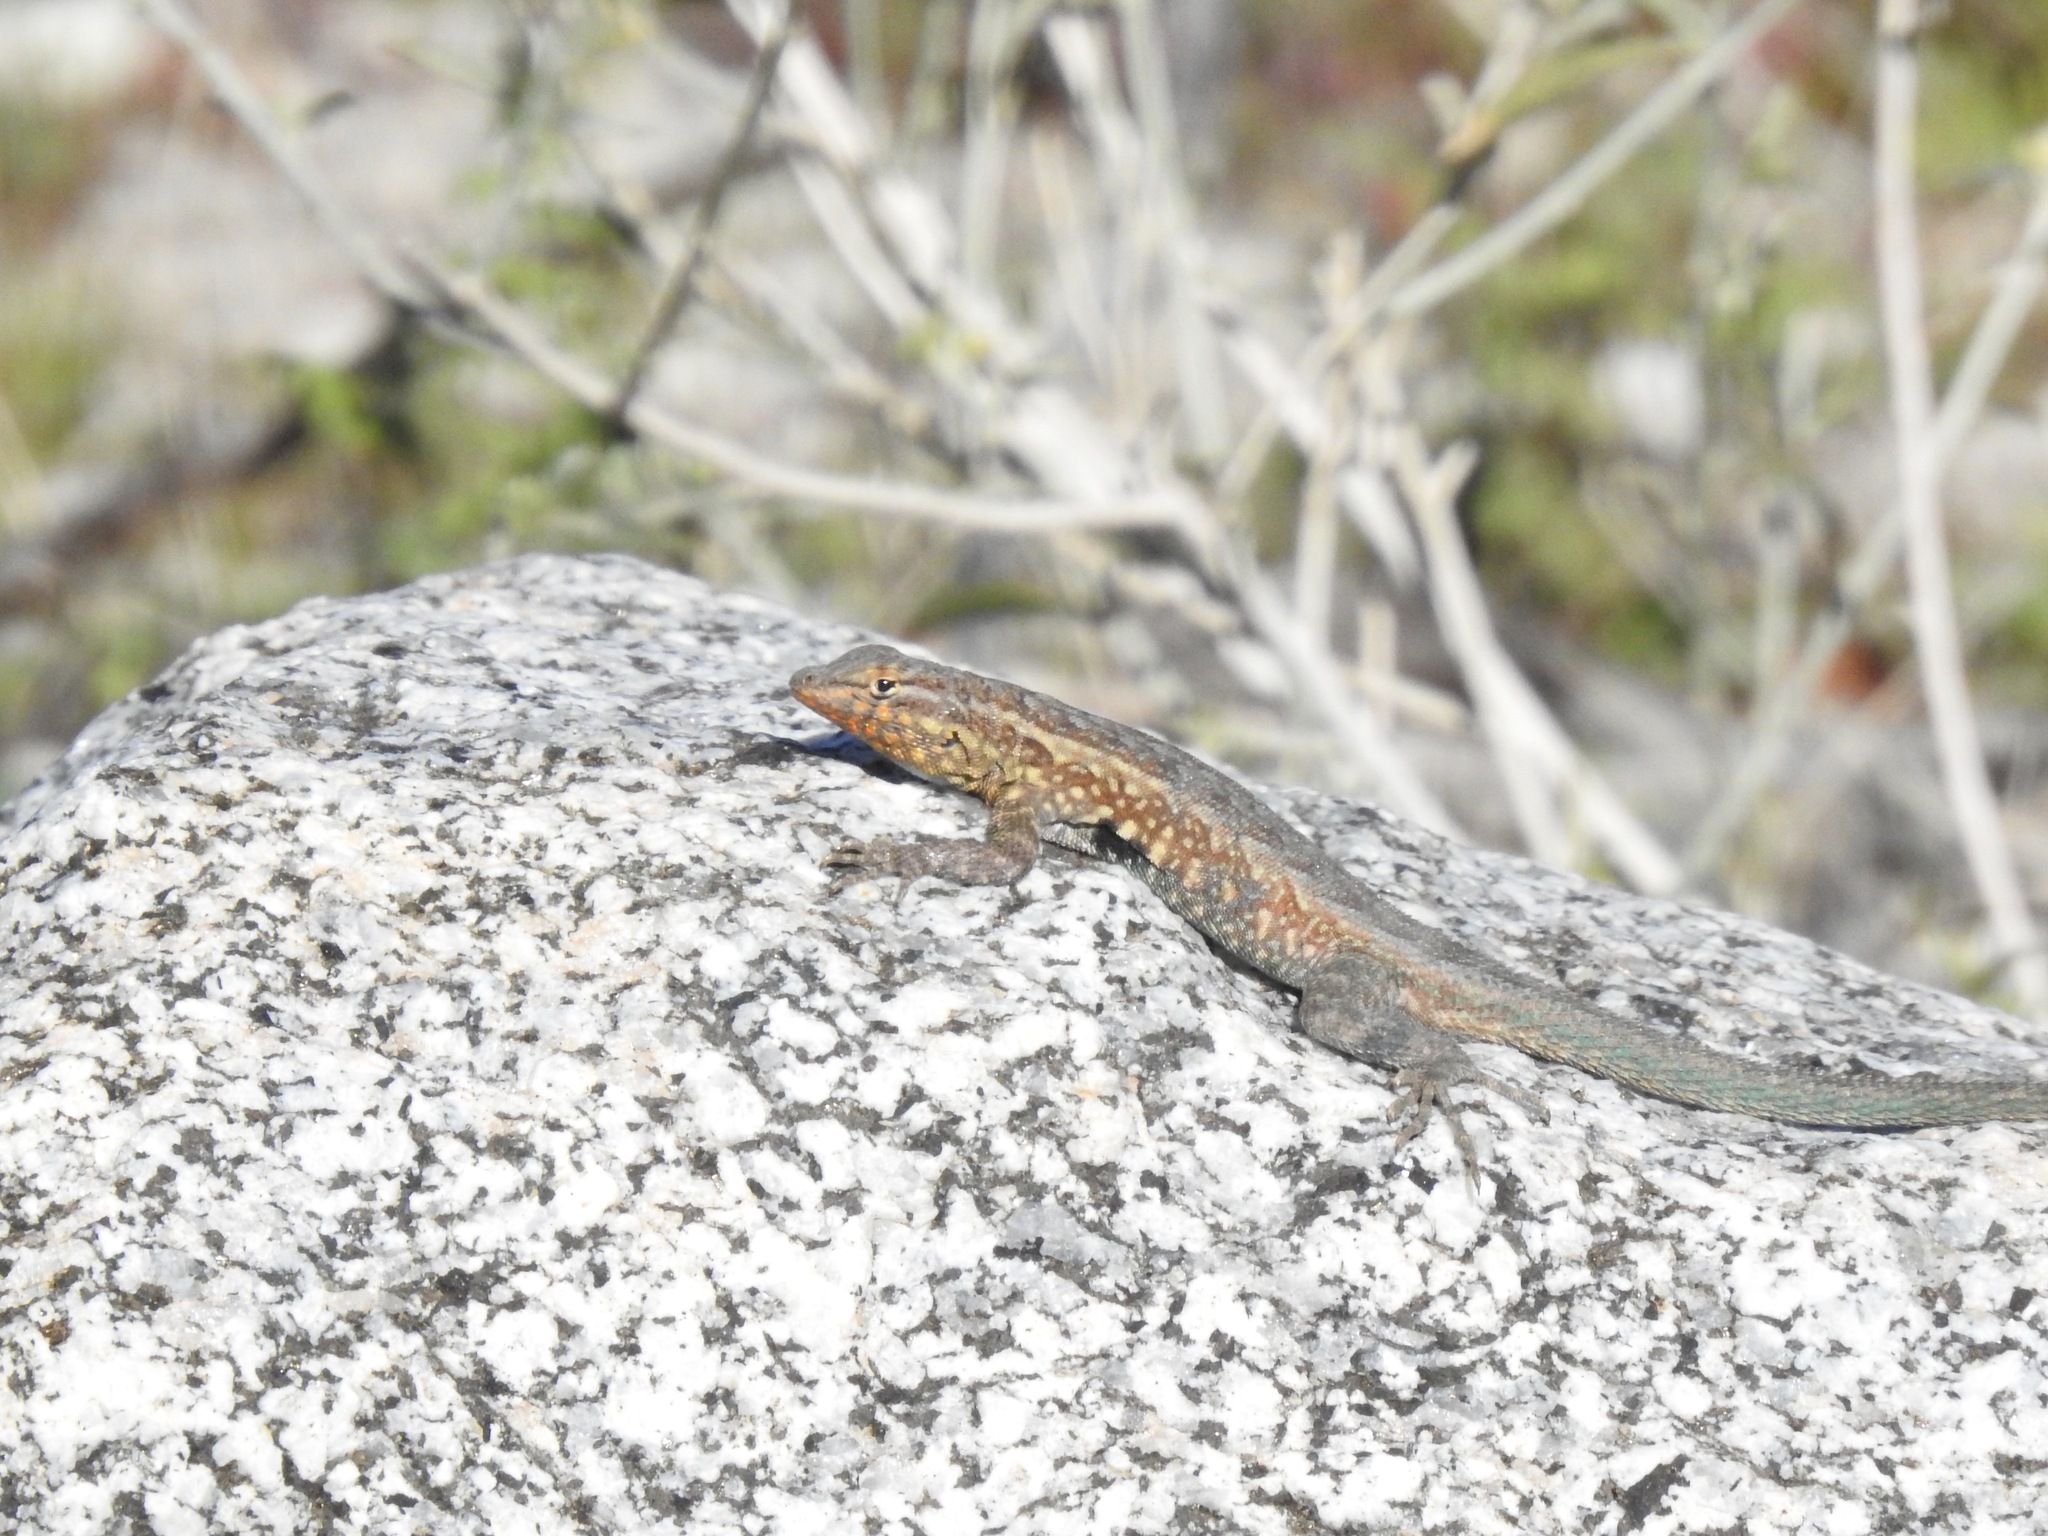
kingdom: Animalia
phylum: Chordata
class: Squamata
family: Phrynosomatidae
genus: Uta
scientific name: Uta stansburiana
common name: Side-blotched lizard
